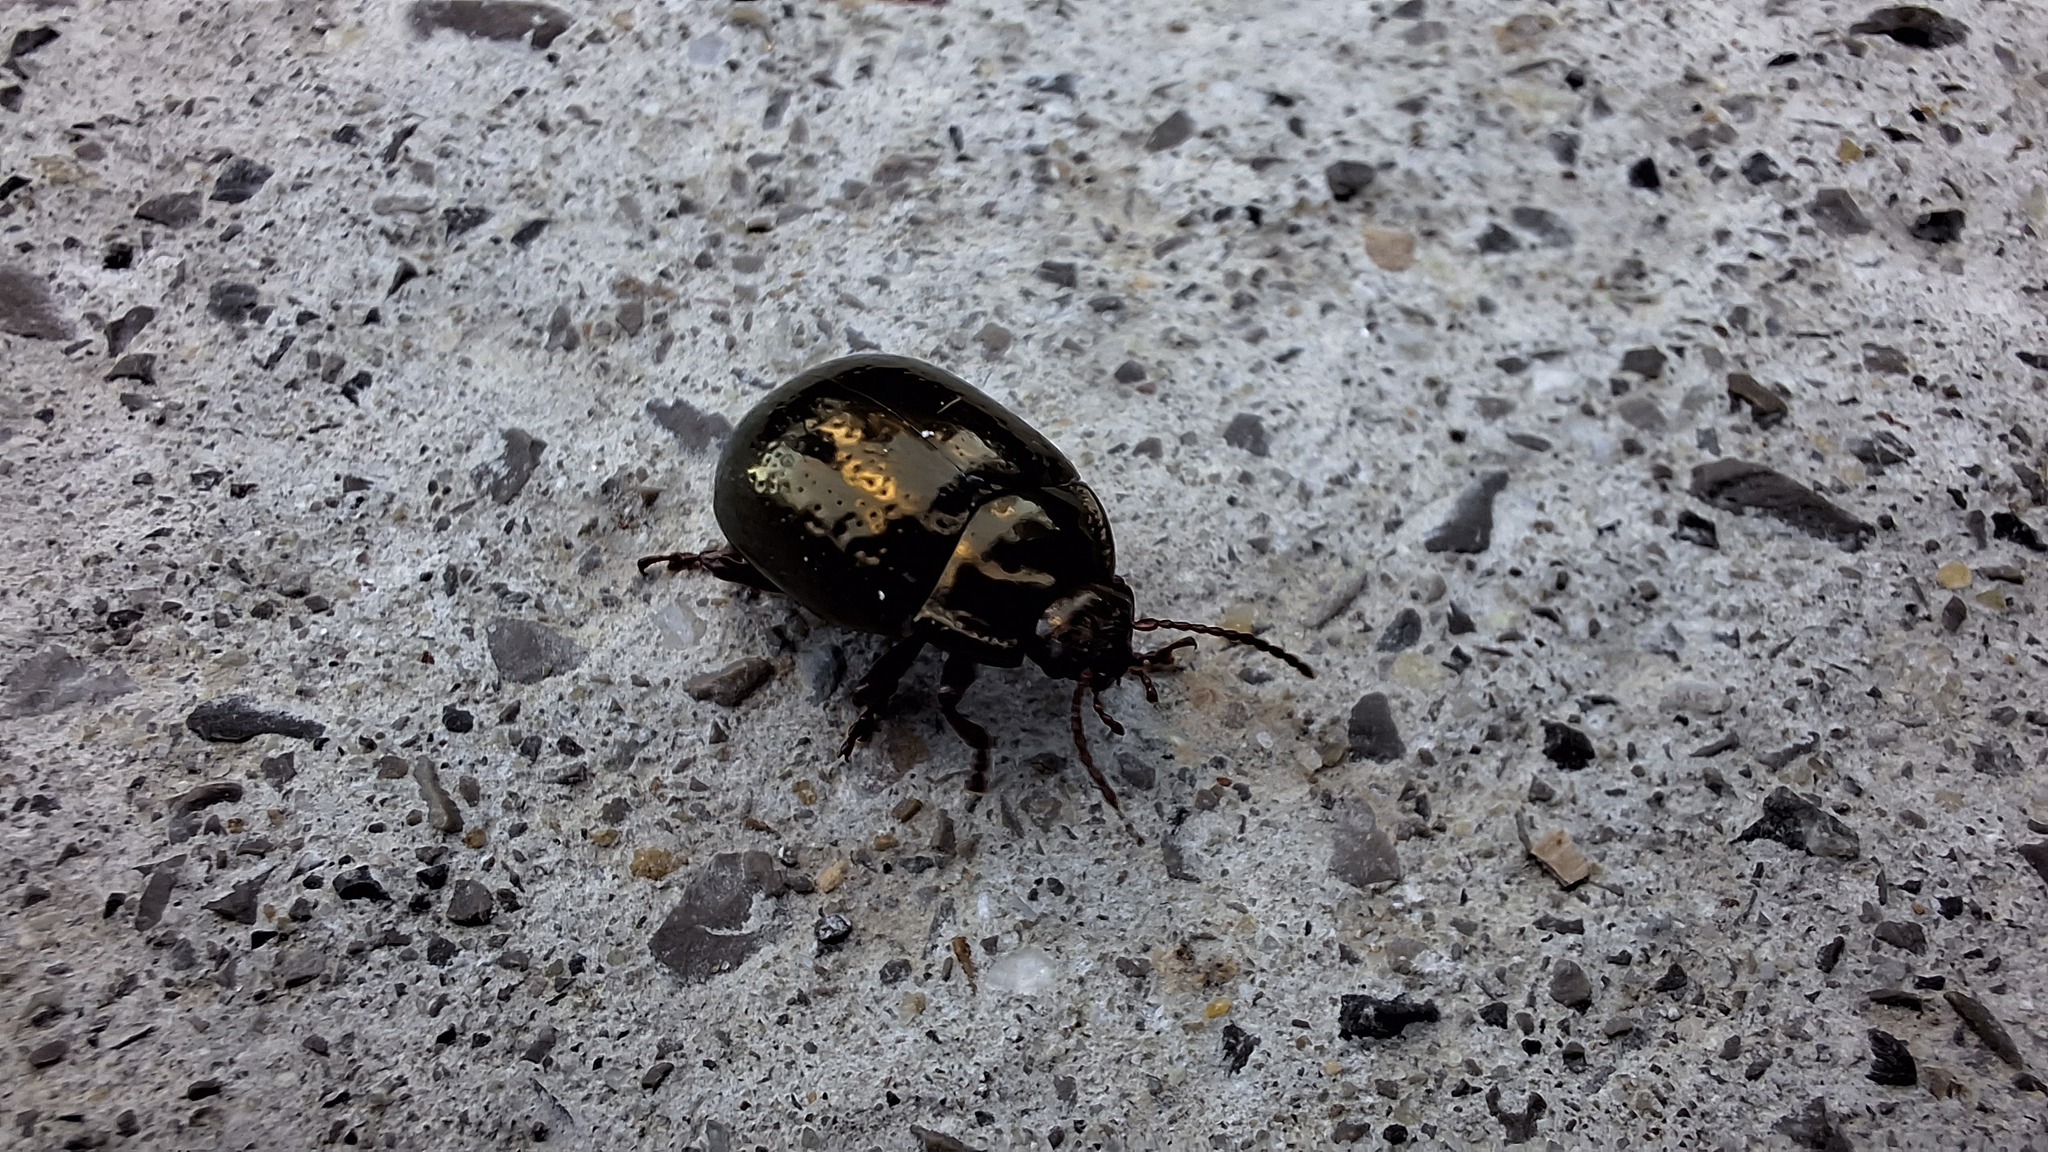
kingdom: Animalia
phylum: Arthropoda
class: Insecta
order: Coleoptera
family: Chrysomelidae
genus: Chrysolina
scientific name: Chrysolina bankii
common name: Leaf beetle
